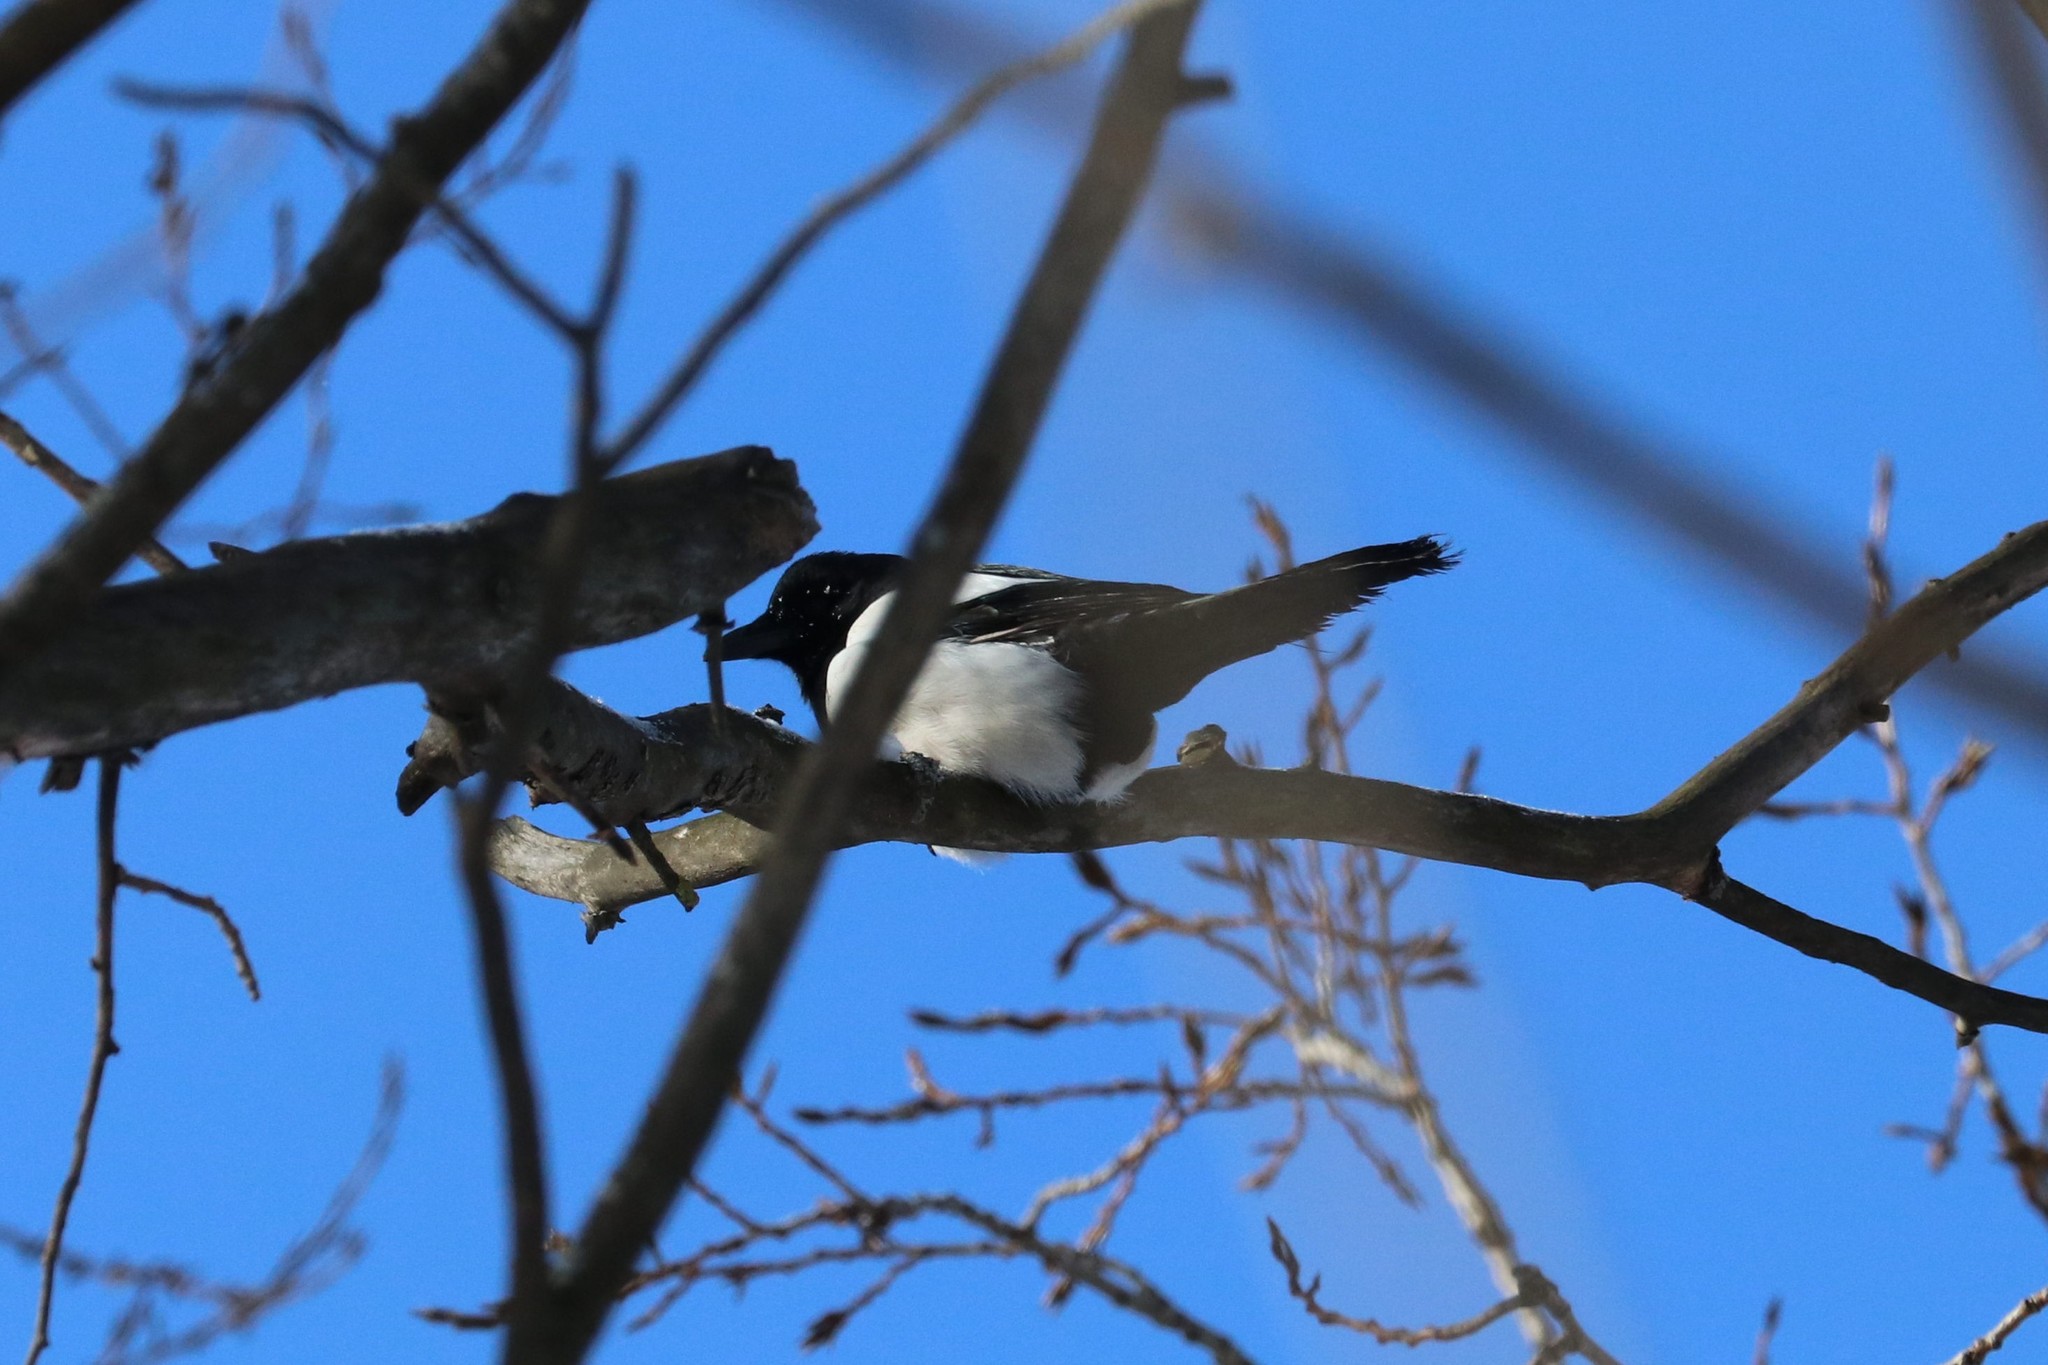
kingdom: Animalia
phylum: Chordata
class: Aves
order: Passeriformes
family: Corvidae
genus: Pica
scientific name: Pica pica
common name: Eurasian magpie
